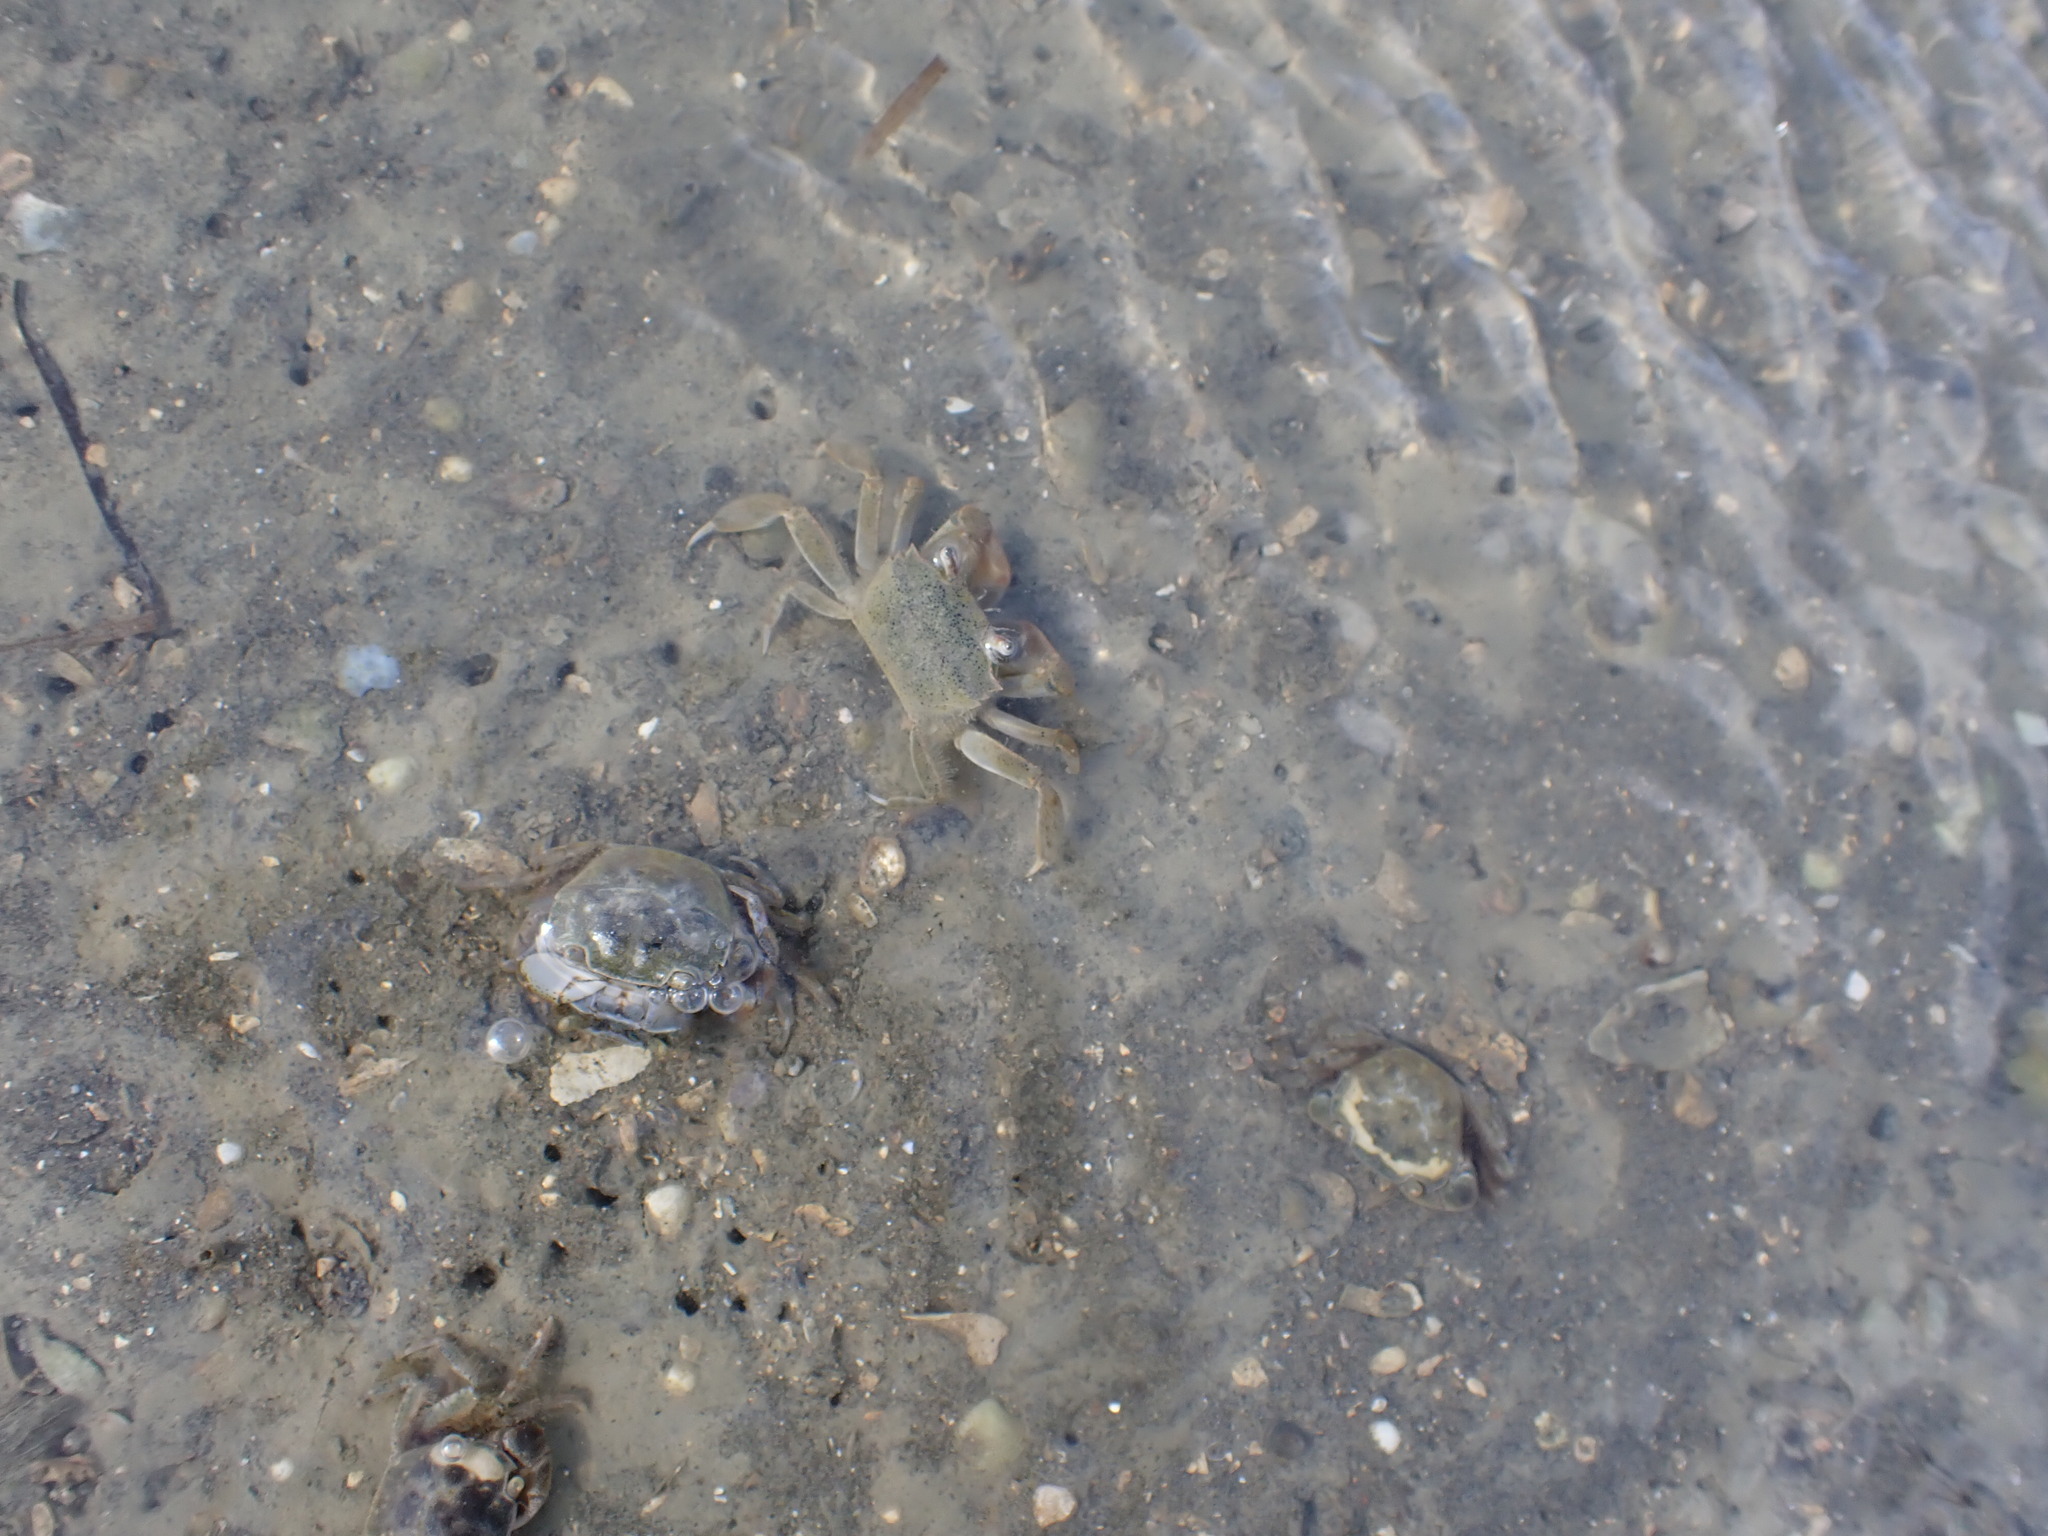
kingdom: Animalia
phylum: Arthropoda
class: Malacostraca
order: Decapoda
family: Macrophthalmidae
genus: Hemiplax
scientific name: Hemiplax hirtipes
